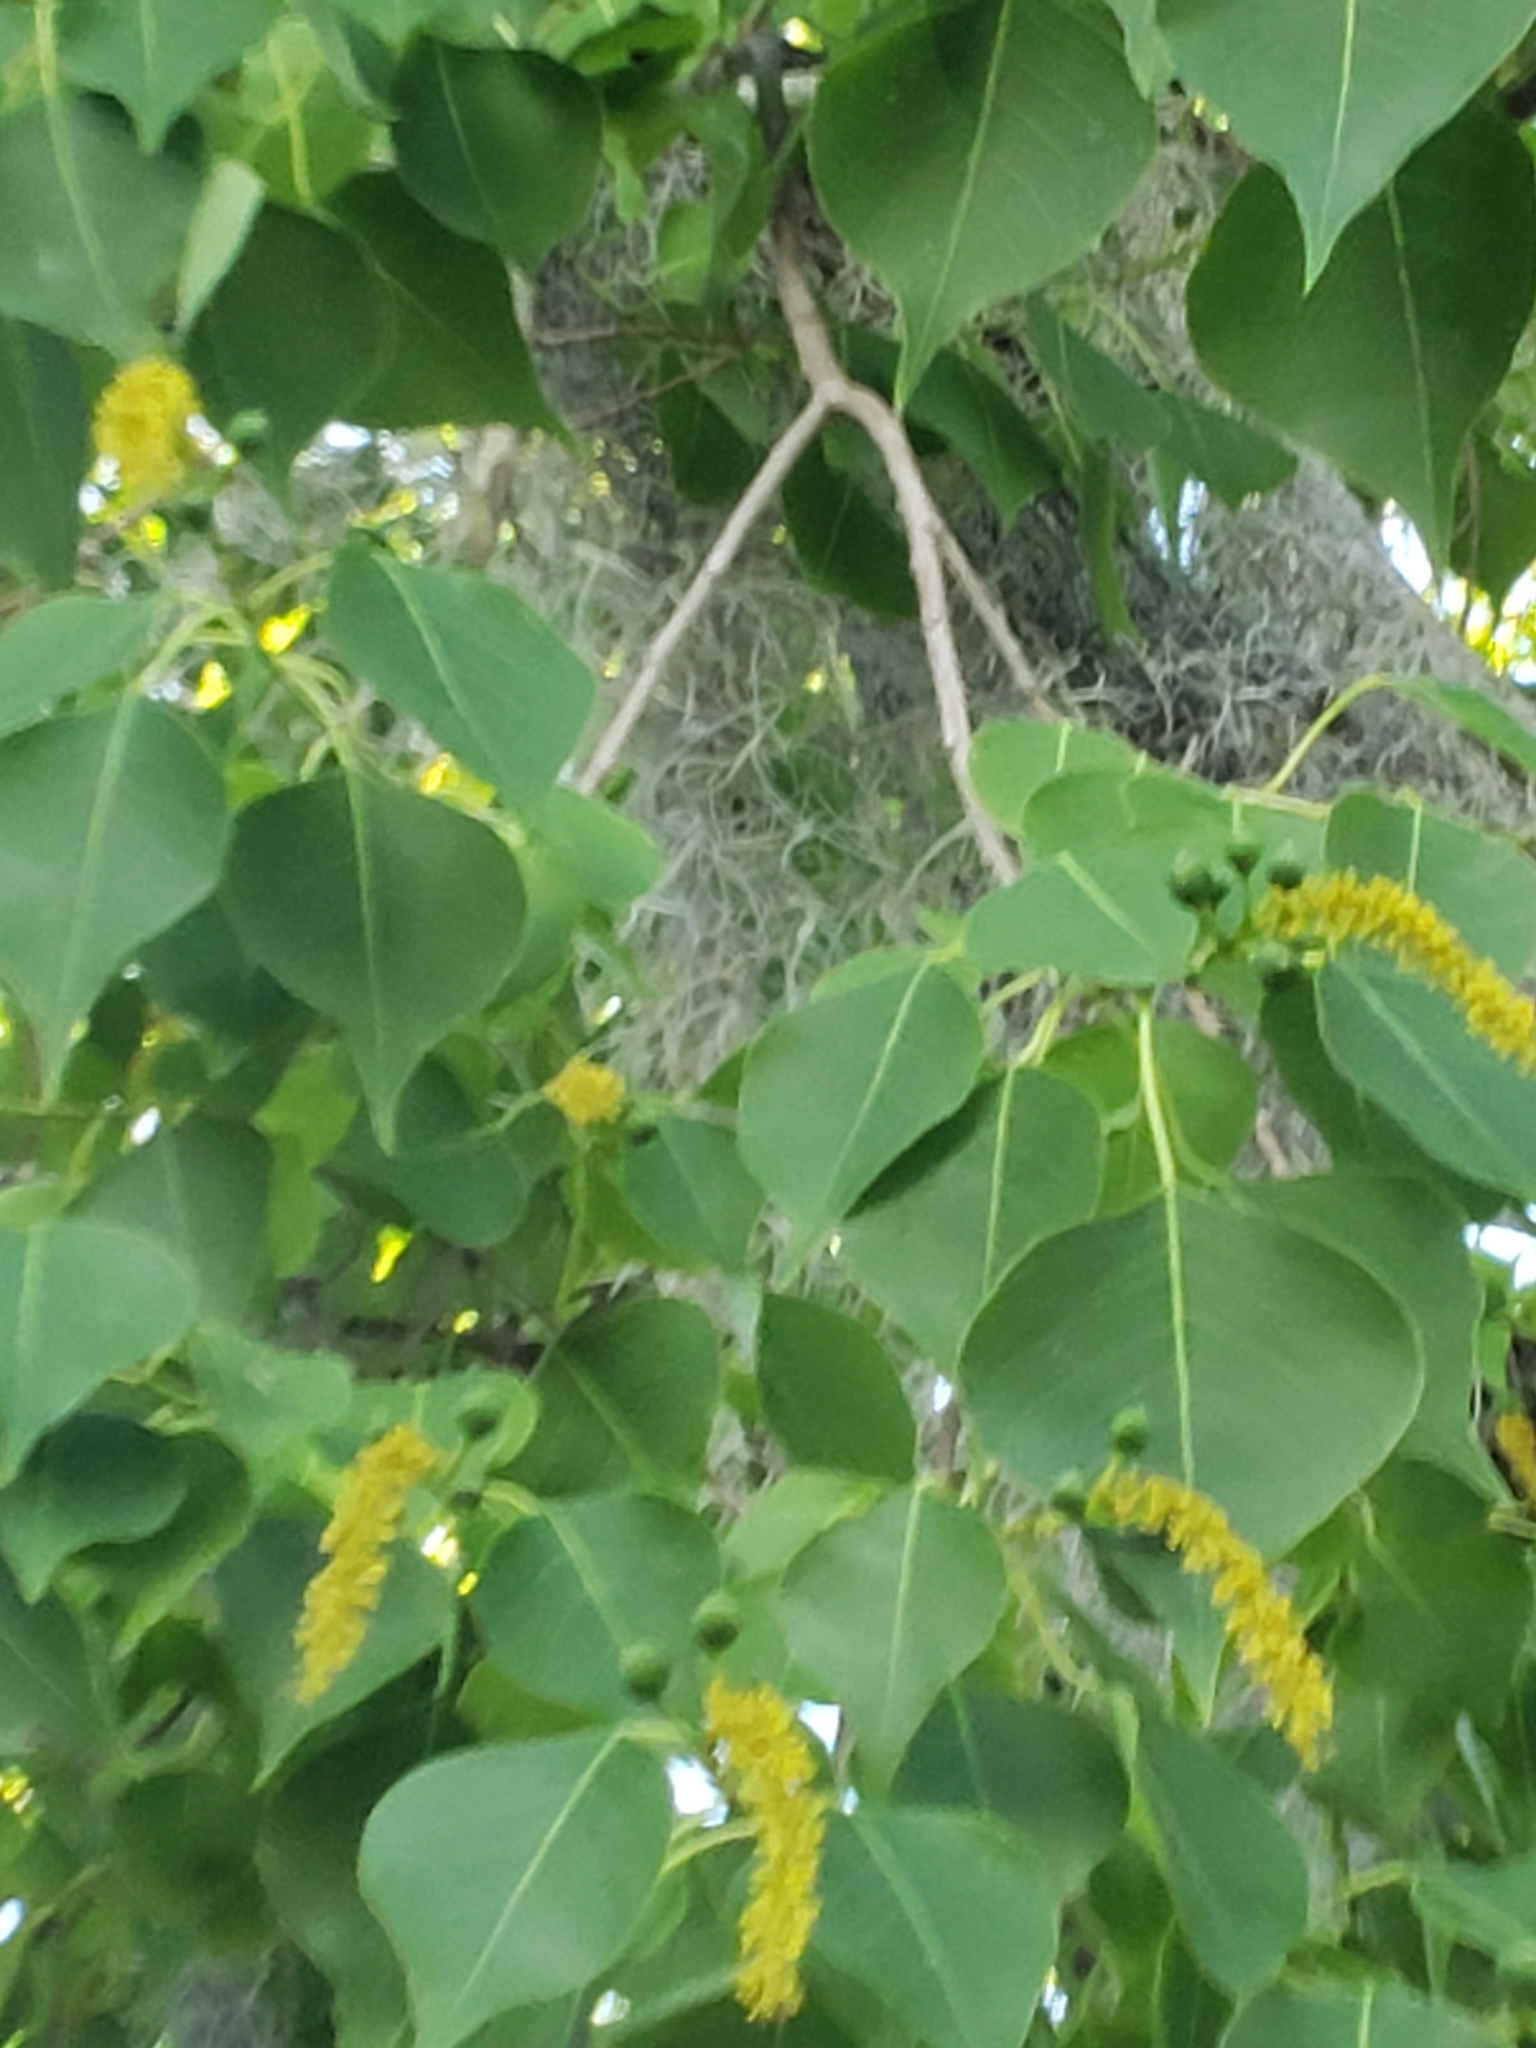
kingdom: Plantae
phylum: Tracheophyta
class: Magnoliopsida
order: Malpighiales
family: Euphorbiaceae
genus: Triadica
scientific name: Triadica sebifera
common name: Chinese tallow
